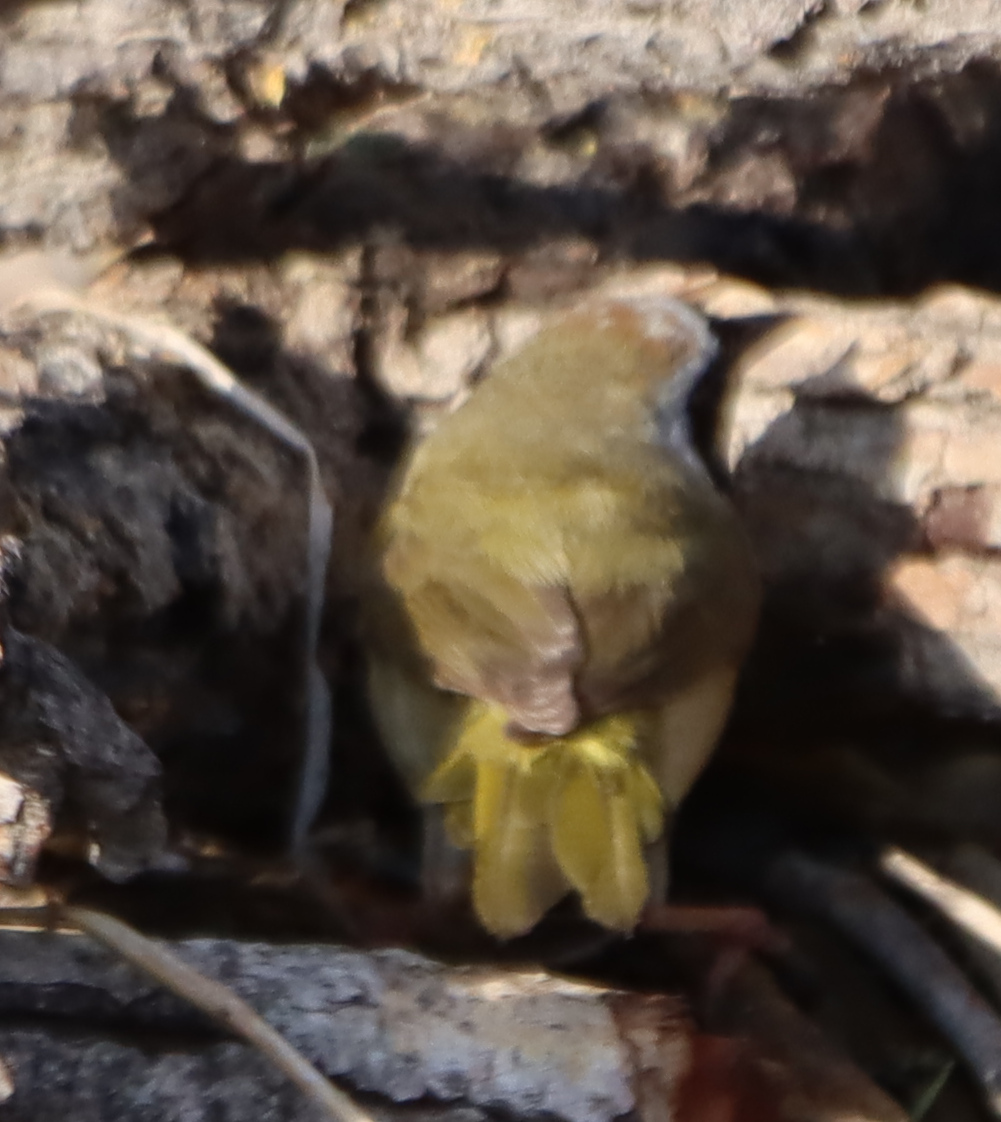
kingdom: Animalia
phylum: Chordata
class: Aves
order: Passeriformes
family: Parulidae
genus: Geothlypis
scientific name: Geothlypis trichas
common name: Common yellowthroat
